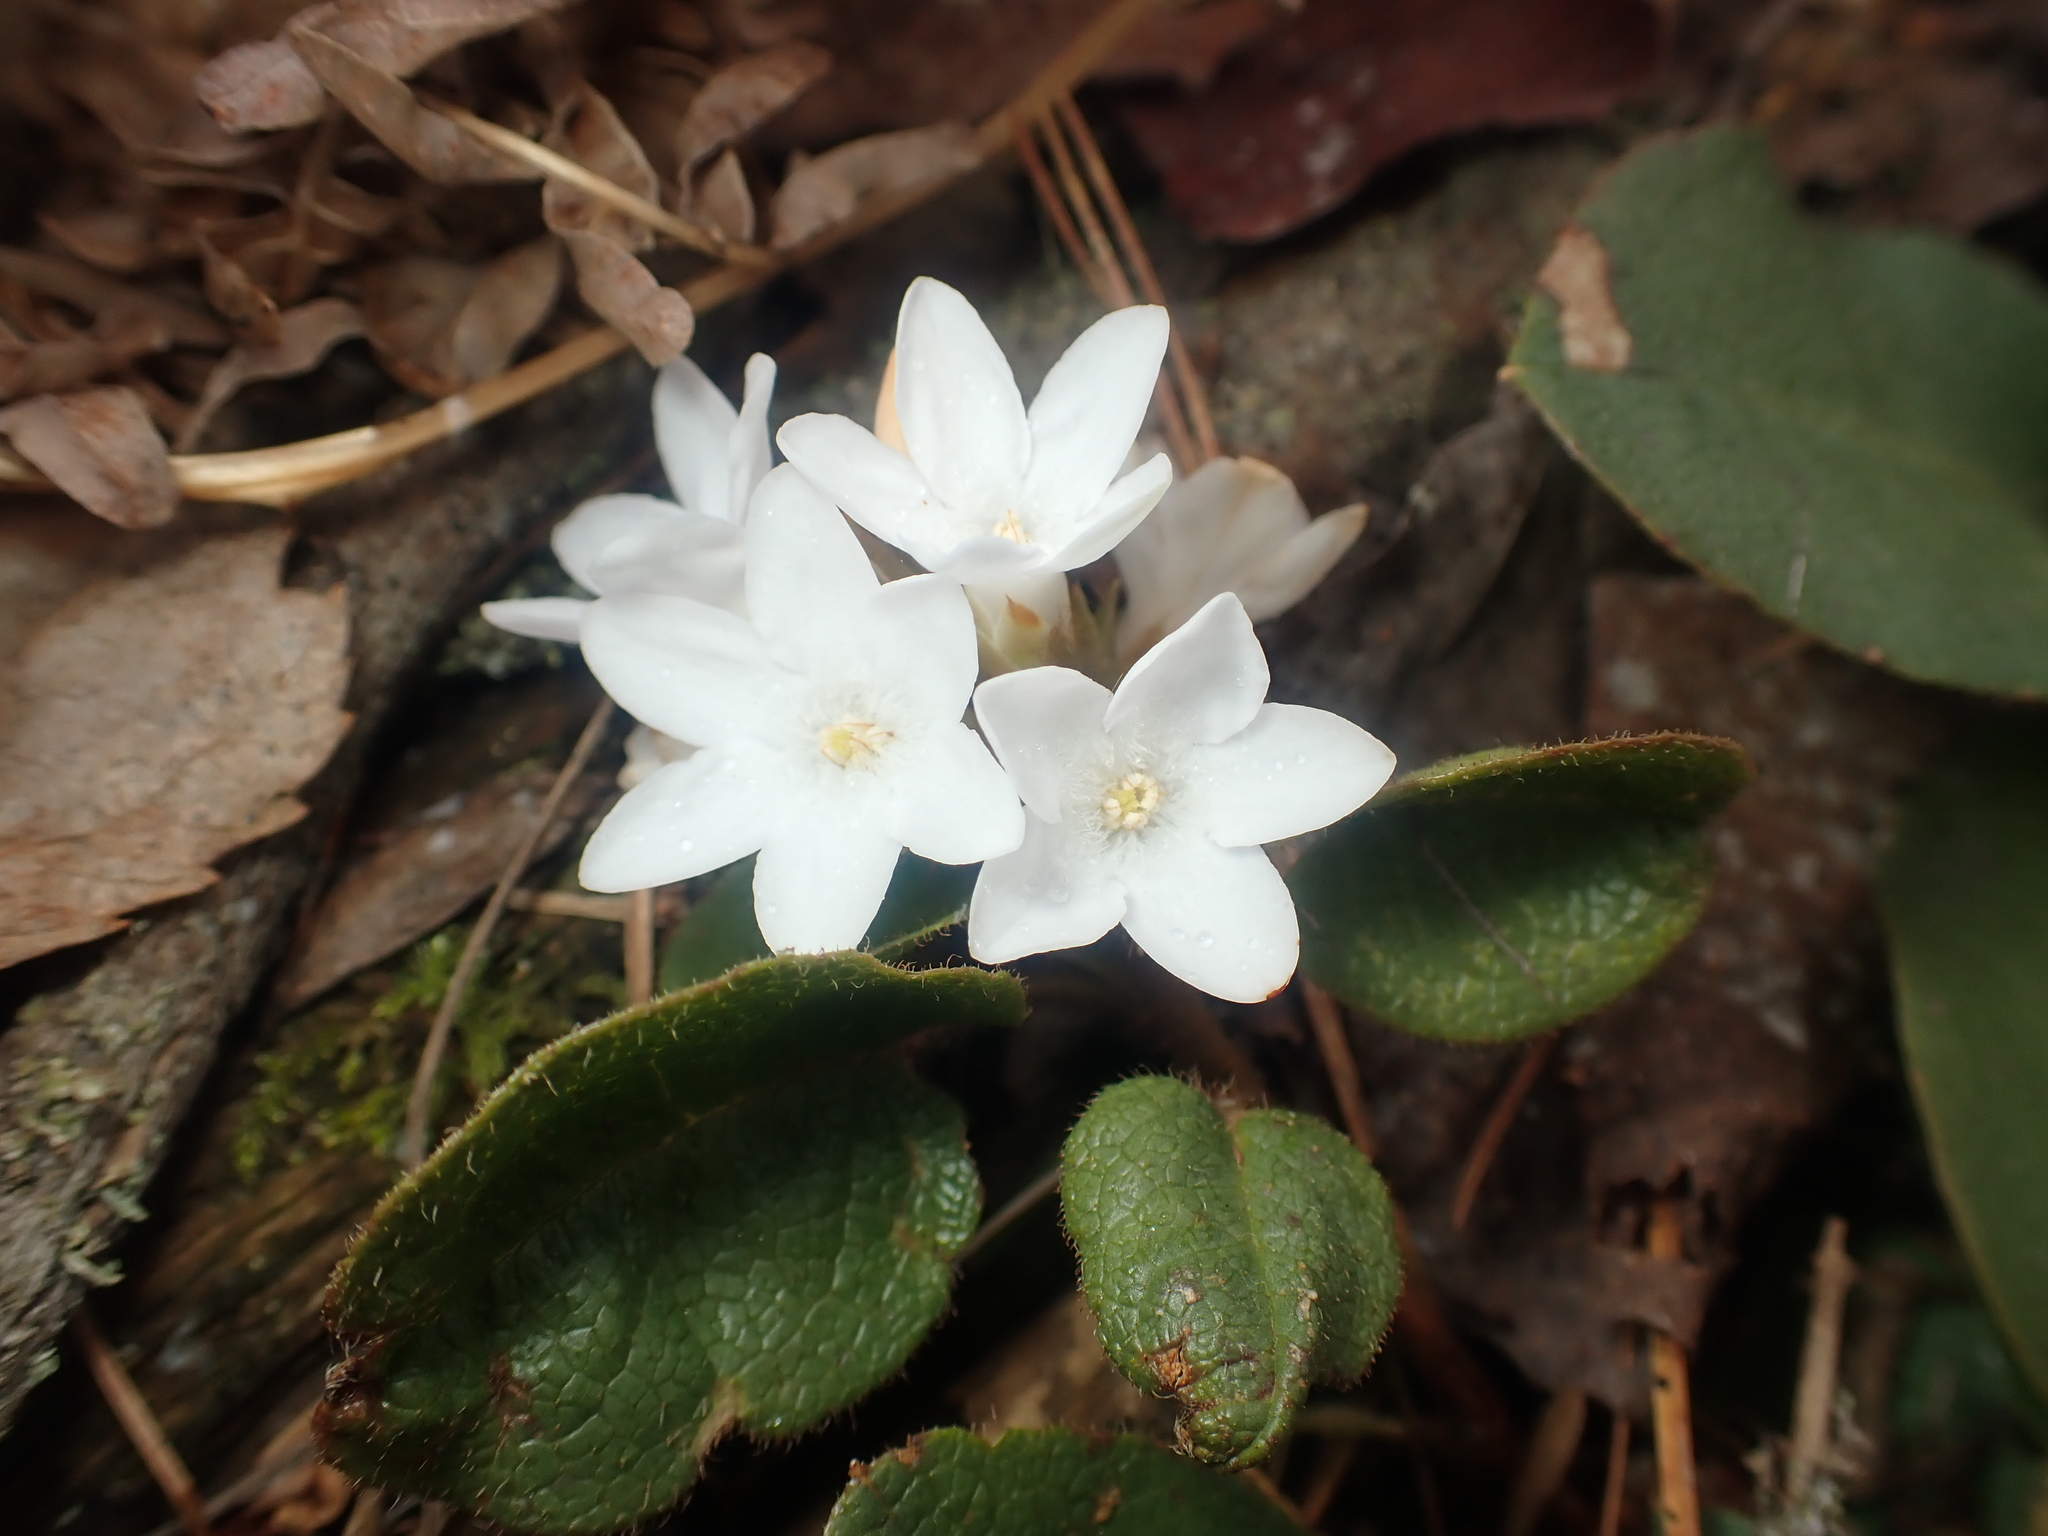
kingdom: Plantae
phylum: Tracheophyta
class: Magnoliopsida
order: Ericales
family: Ericaceae
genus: Epigaea
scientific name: Epigaea repens
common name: Gravelroot
